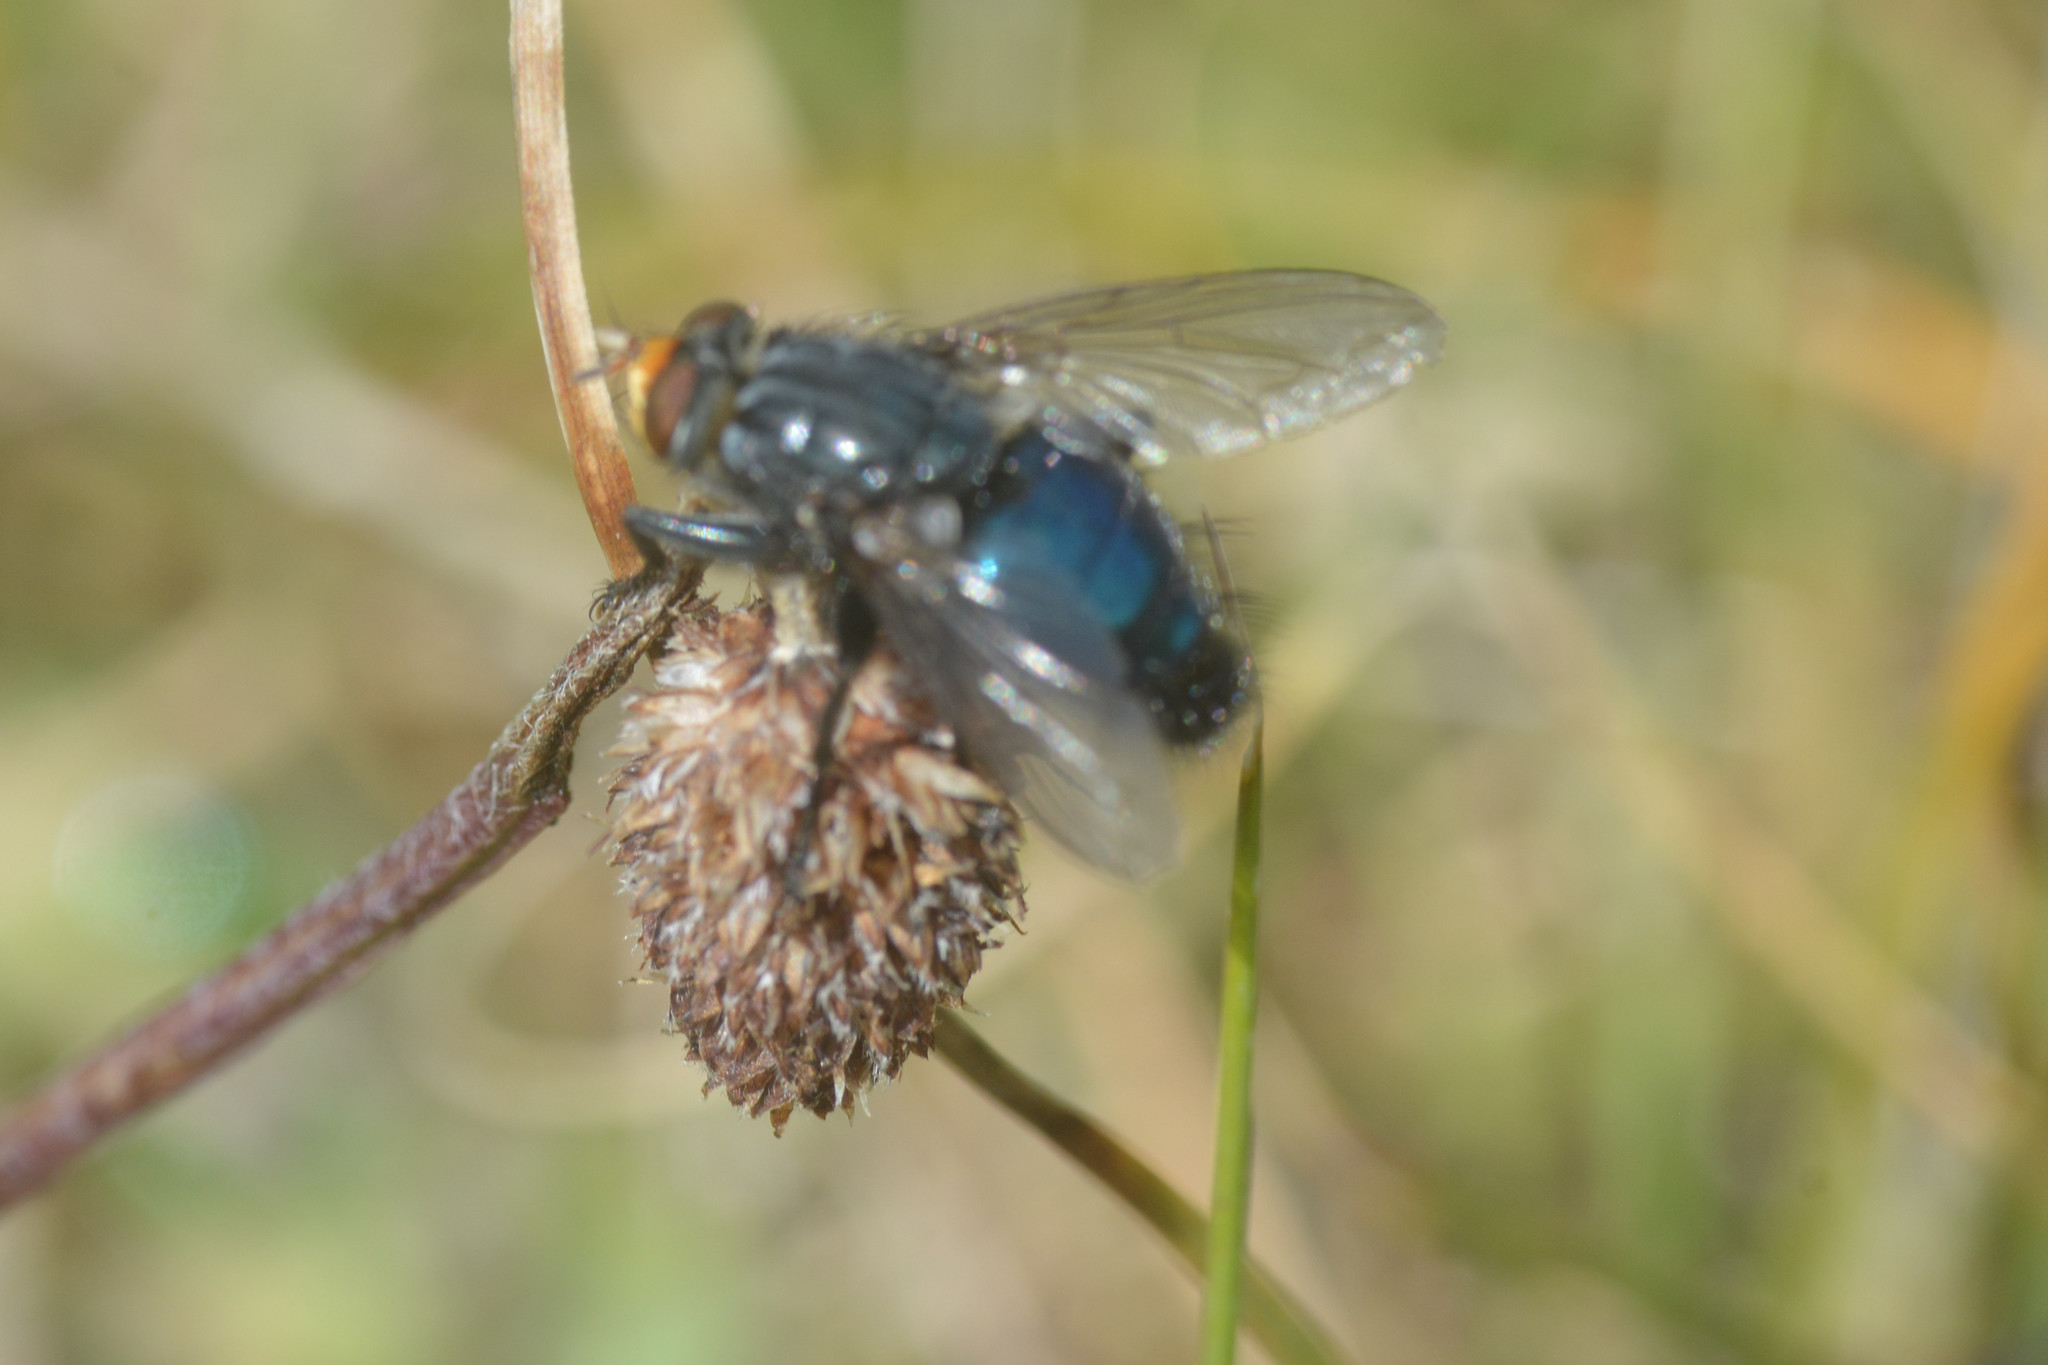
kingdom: Animalia
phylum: Arthropoda
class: Insecta
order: Diptera
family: Calliphoridae
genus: Cynomya
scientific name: Cynomya mortuorum
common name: Bluebottle blow fly
